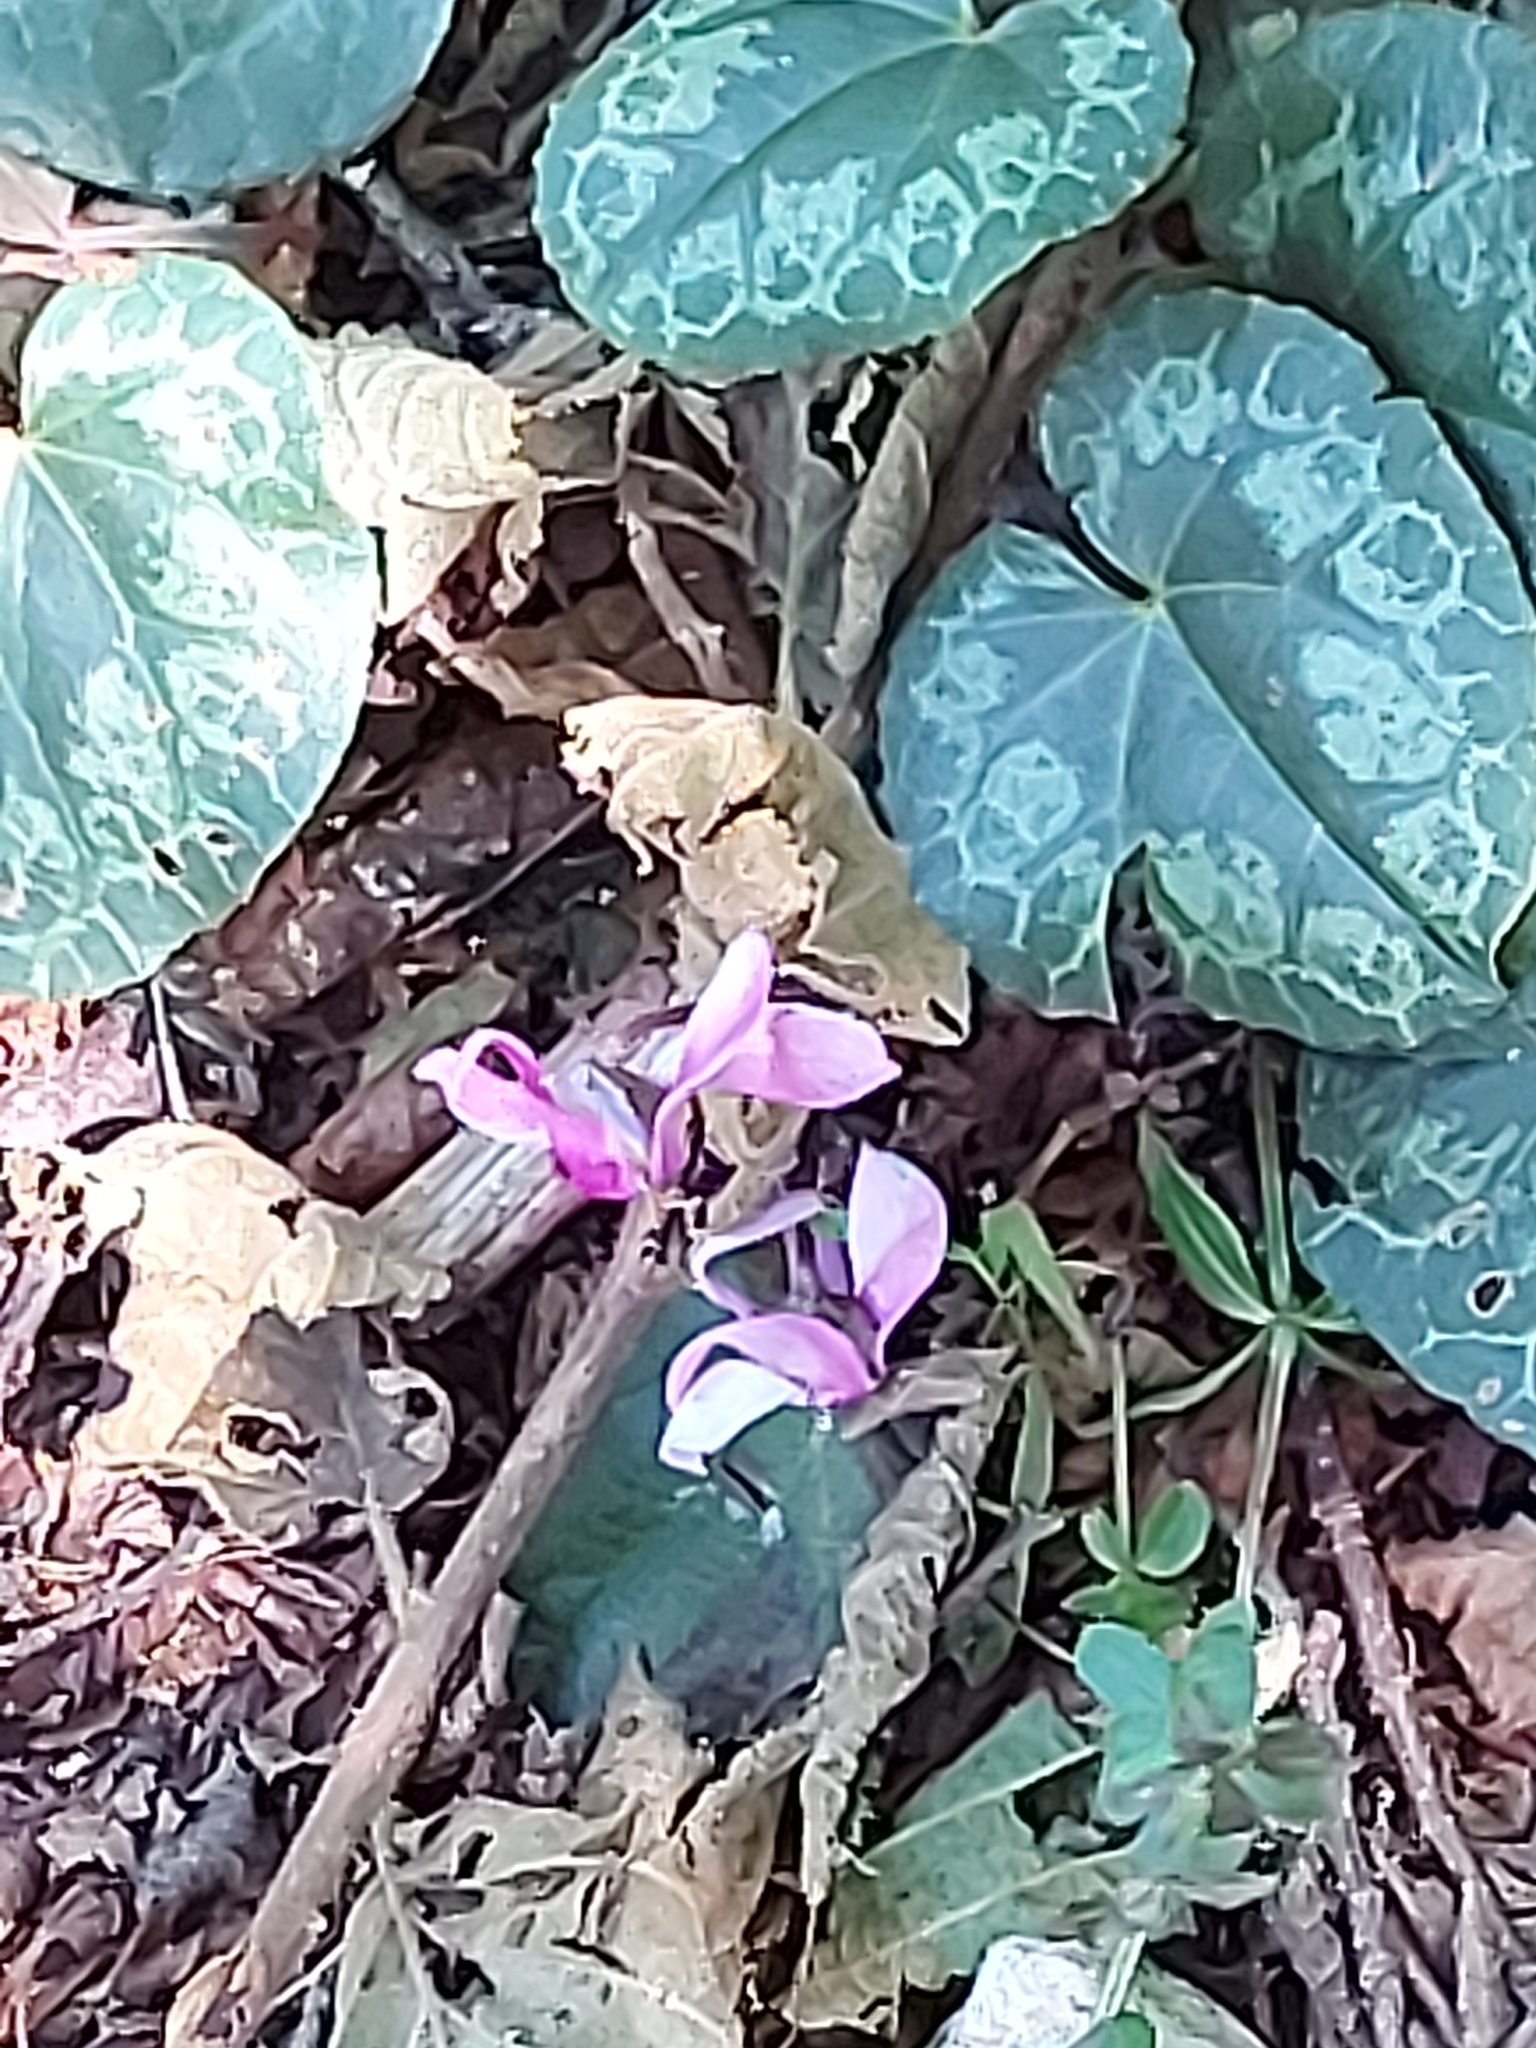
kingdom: Plantae
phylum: Tracheophyta
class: Magnoliopsida
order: Ericales
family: Primulaceae
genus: Cyclamen
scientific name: Cyclamen purpurascens
